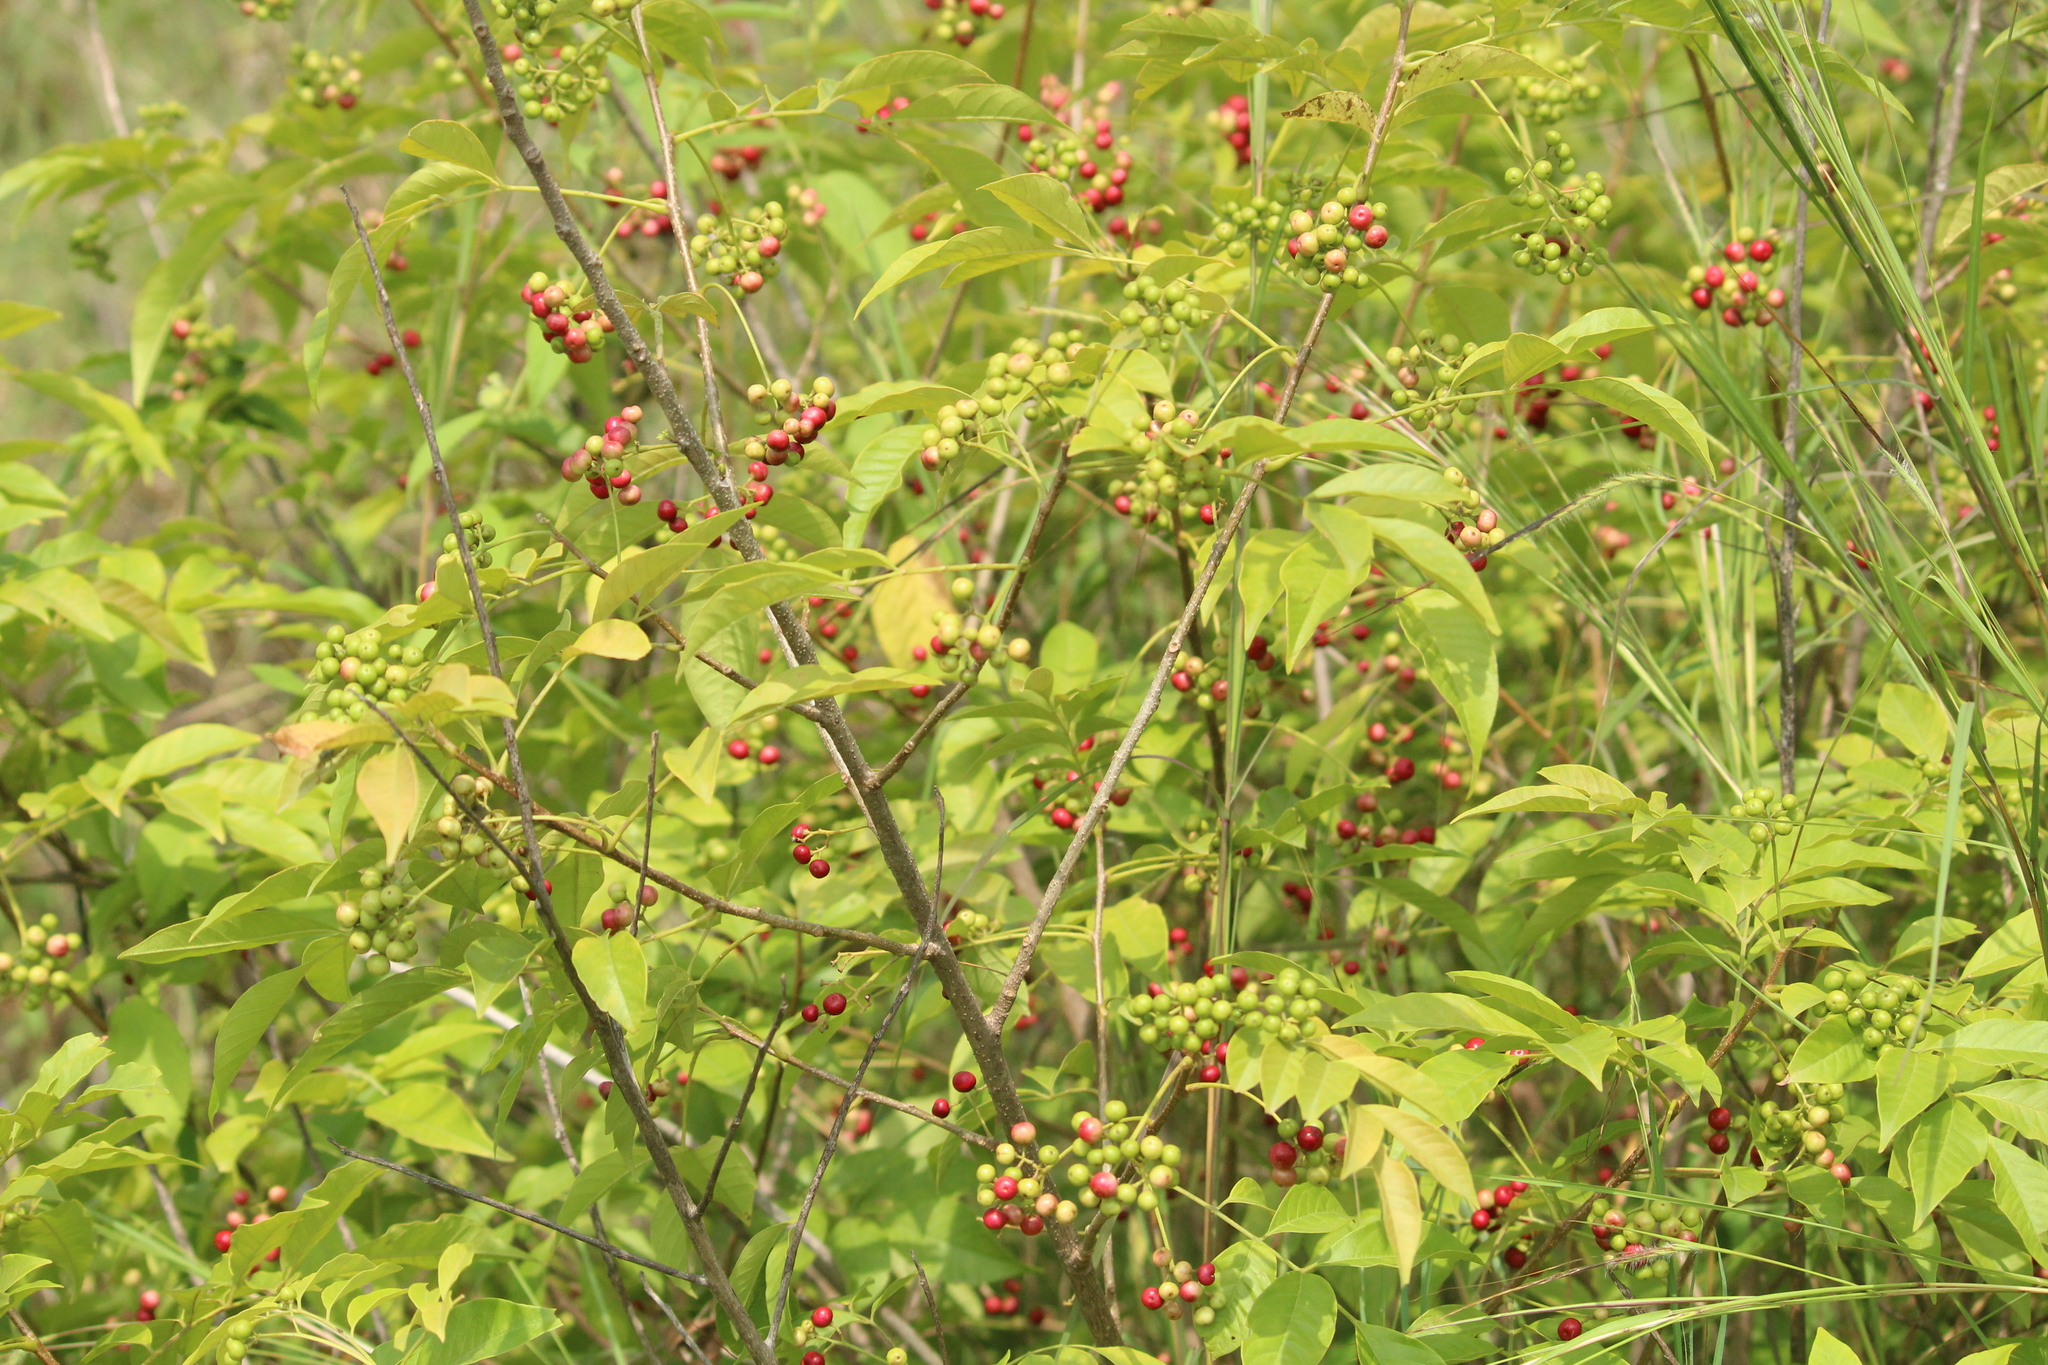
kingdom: Plantae
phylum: Tracheophyta
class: Magnoliopsida
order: Sapindales
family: Meliaceae
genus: Cipadessa
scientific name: Cipadessa baccifera
